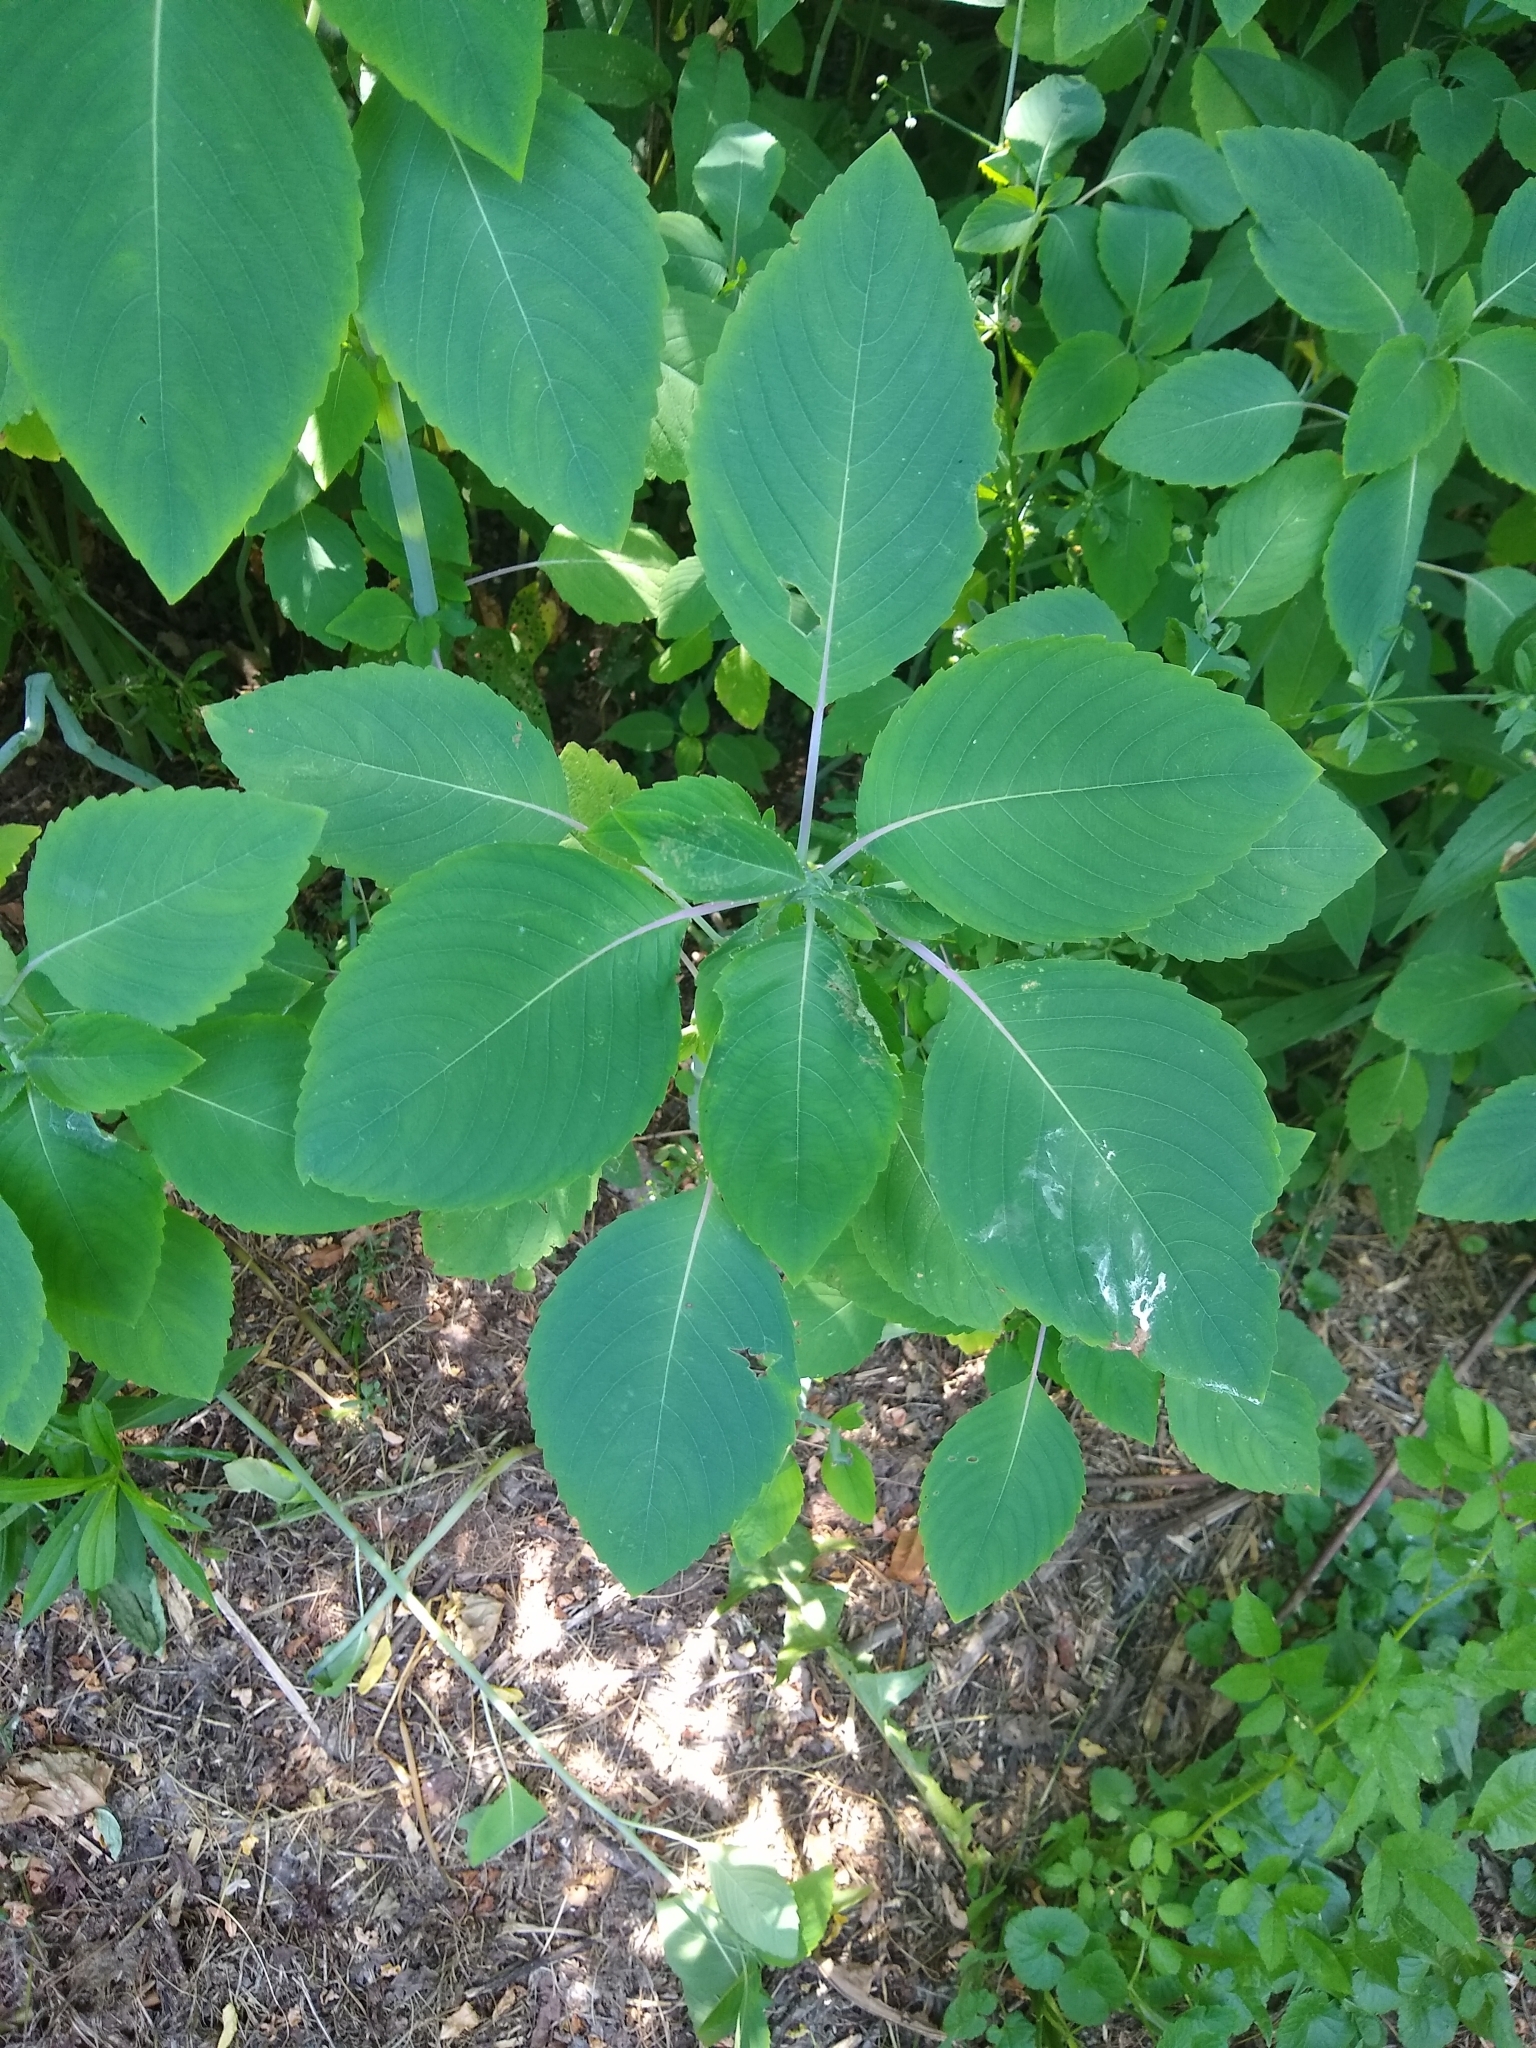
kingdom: Plantae
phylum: Tracheophyta
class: Magnoliopsida
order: Ericales
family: Balsaminaceae
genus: Impatiens
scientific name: Impatiens pallida
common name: Pale snapweed
